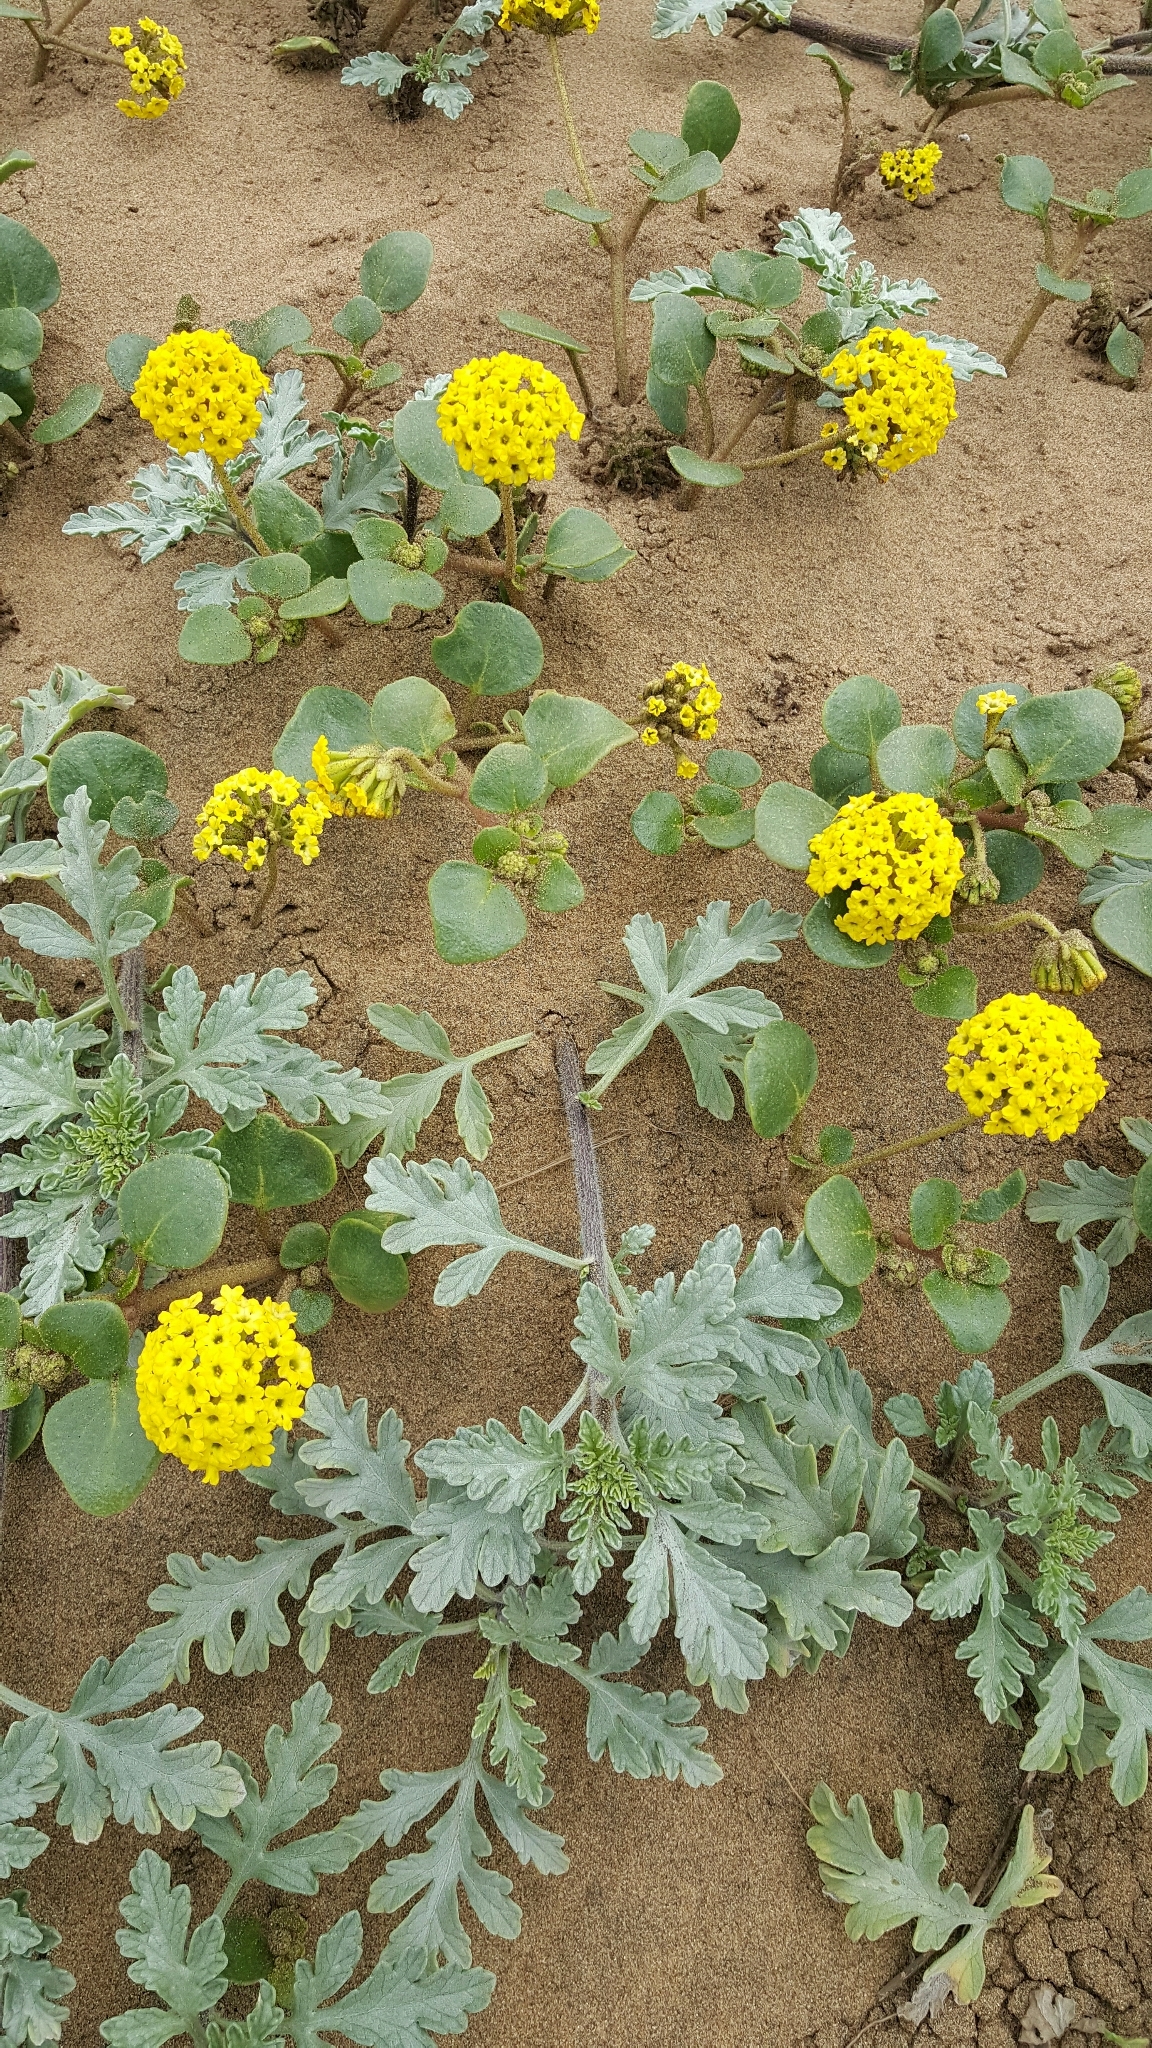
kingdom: Plantae
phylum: Tracheophyta
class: Magnoliopsida
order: Caryophyllales
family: Nyctaginaceae
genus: Abronia
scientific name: Abronia latifolia
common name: Yellow sand-verbena
